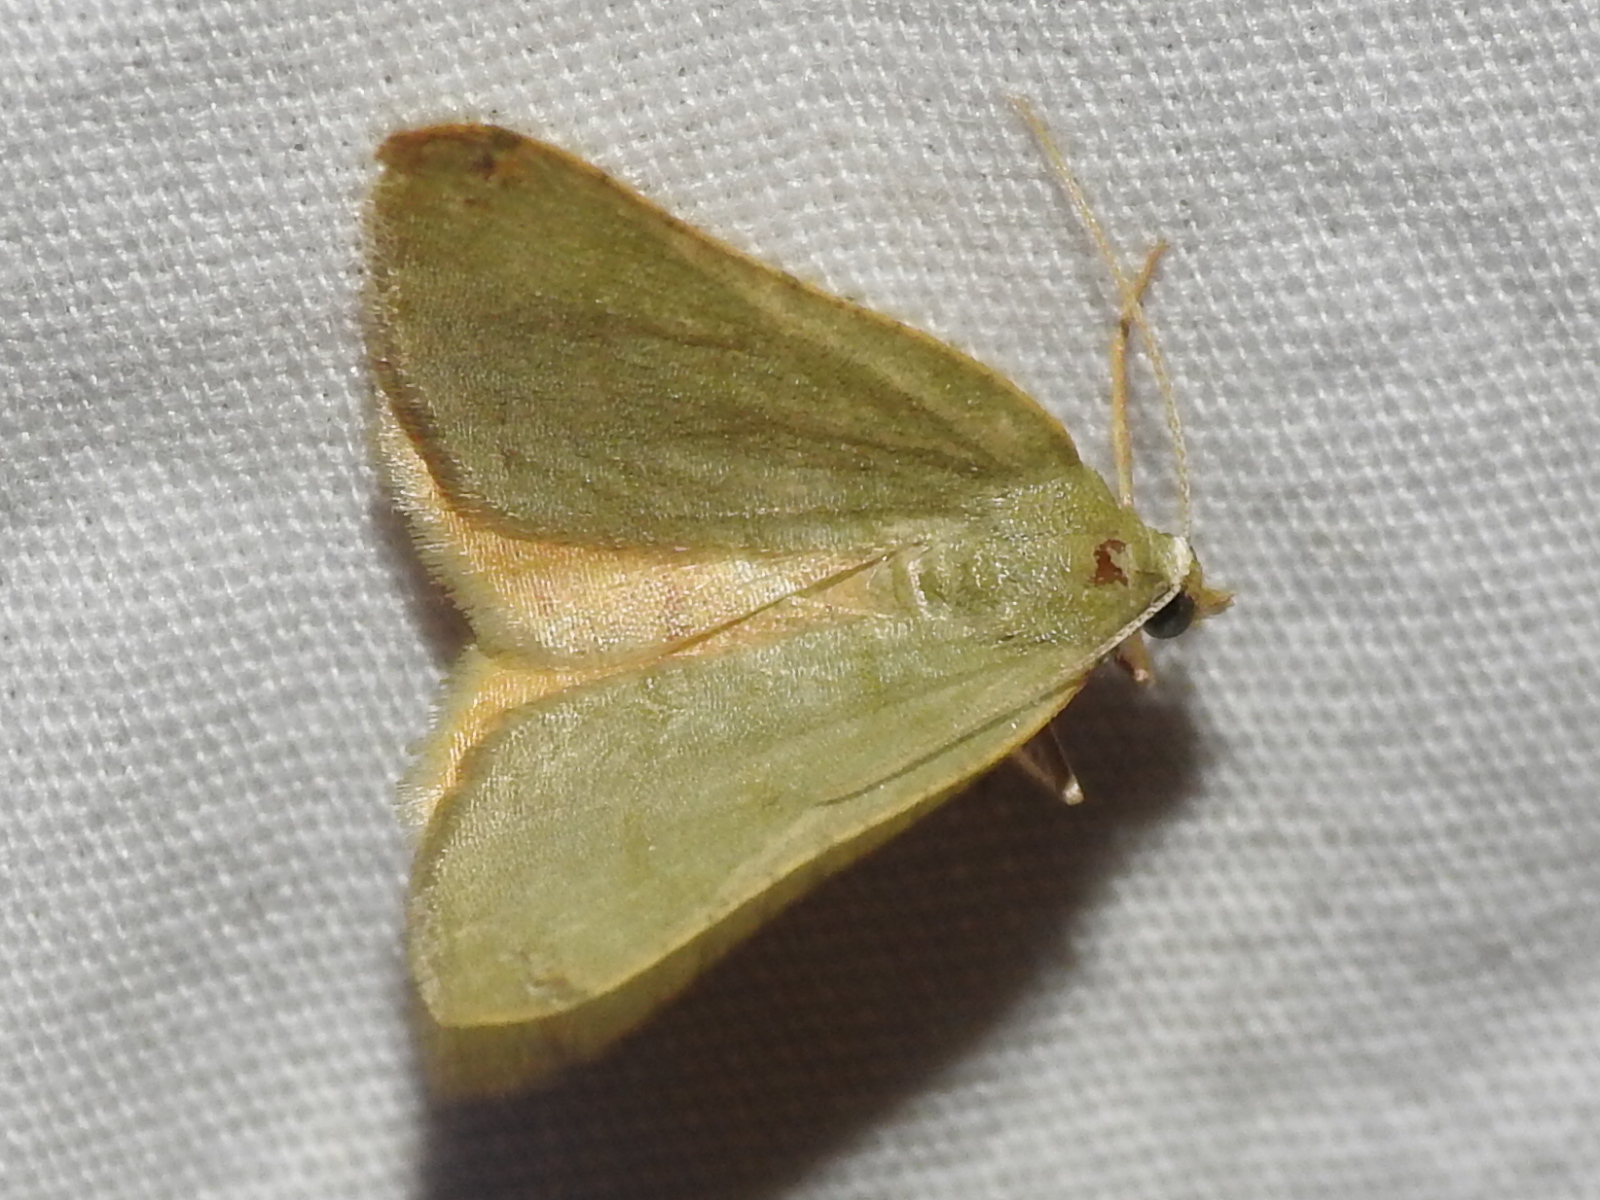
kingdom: Animalia
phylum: Arthropoda
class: Insecta
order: Lepidoptera
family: Geometridae
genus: Chloraspilates
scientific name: Chloraspilates bicoloraria
